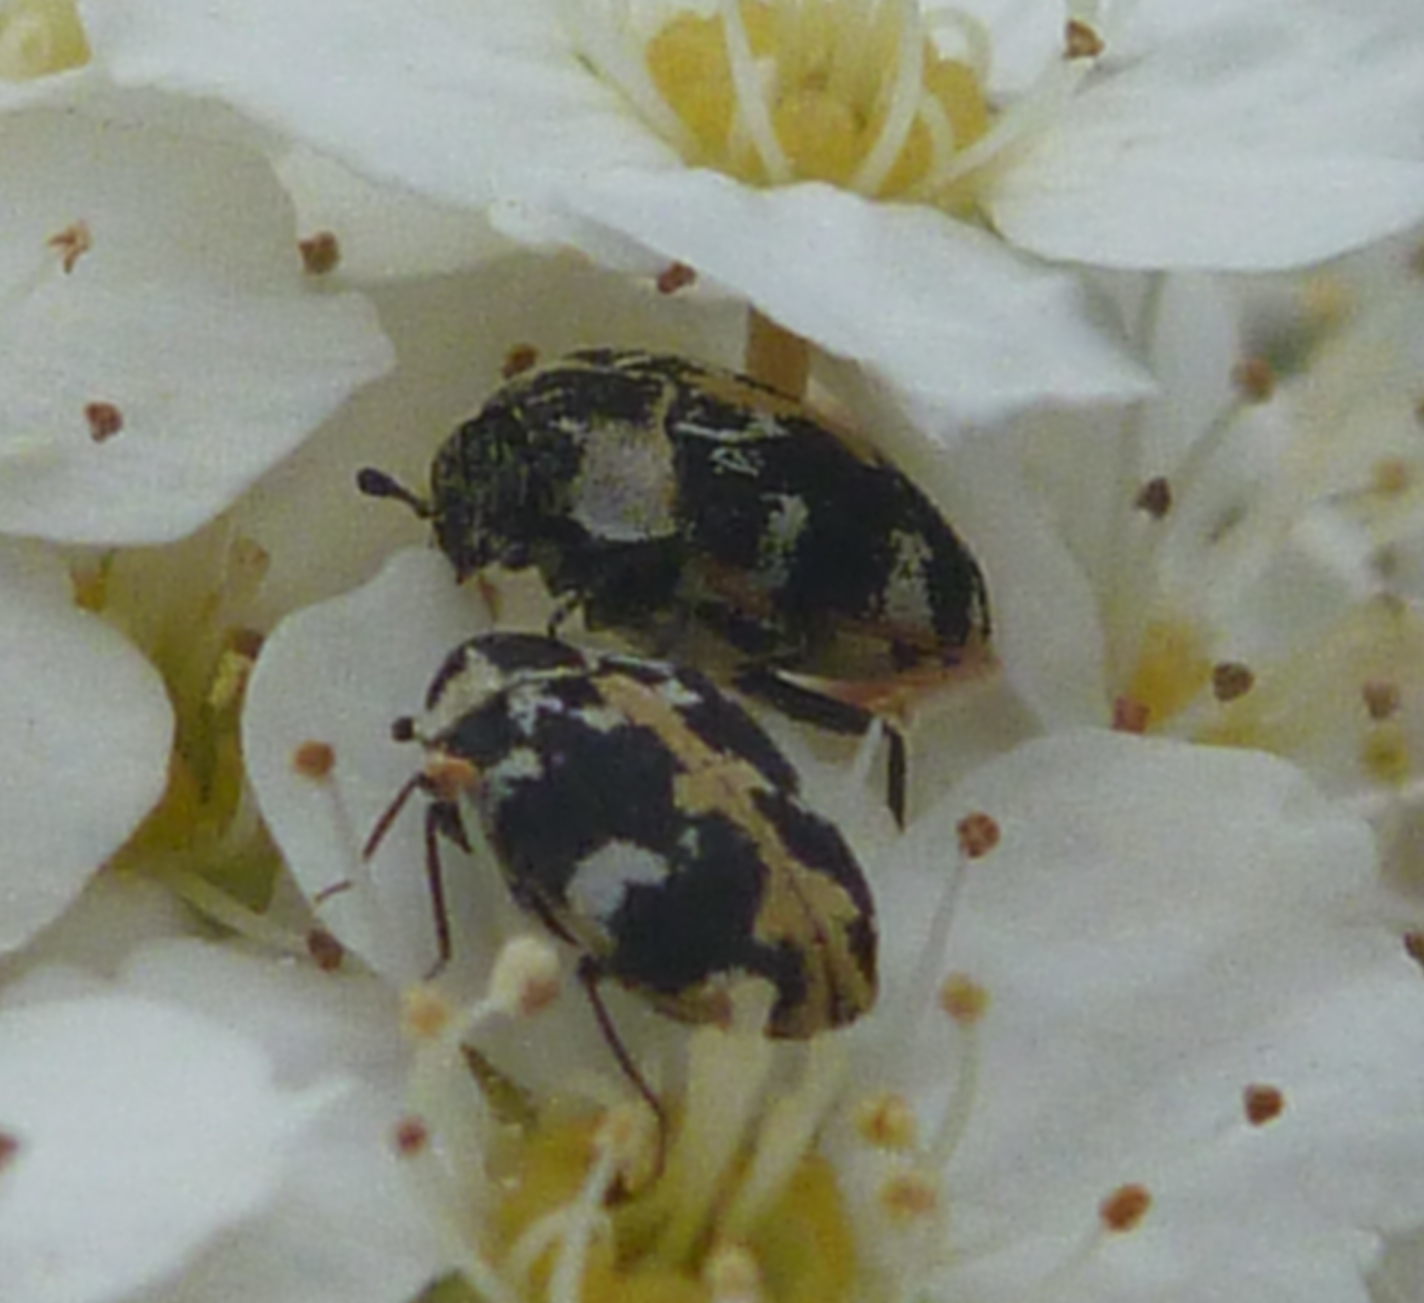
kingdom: Animalia
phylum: Arthropoda
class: Insecta
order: Coleoptera
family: Dermestidae
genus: Anthrenus
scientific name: Anthrenus scrophulariae
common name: Buffalo carpet beetle
